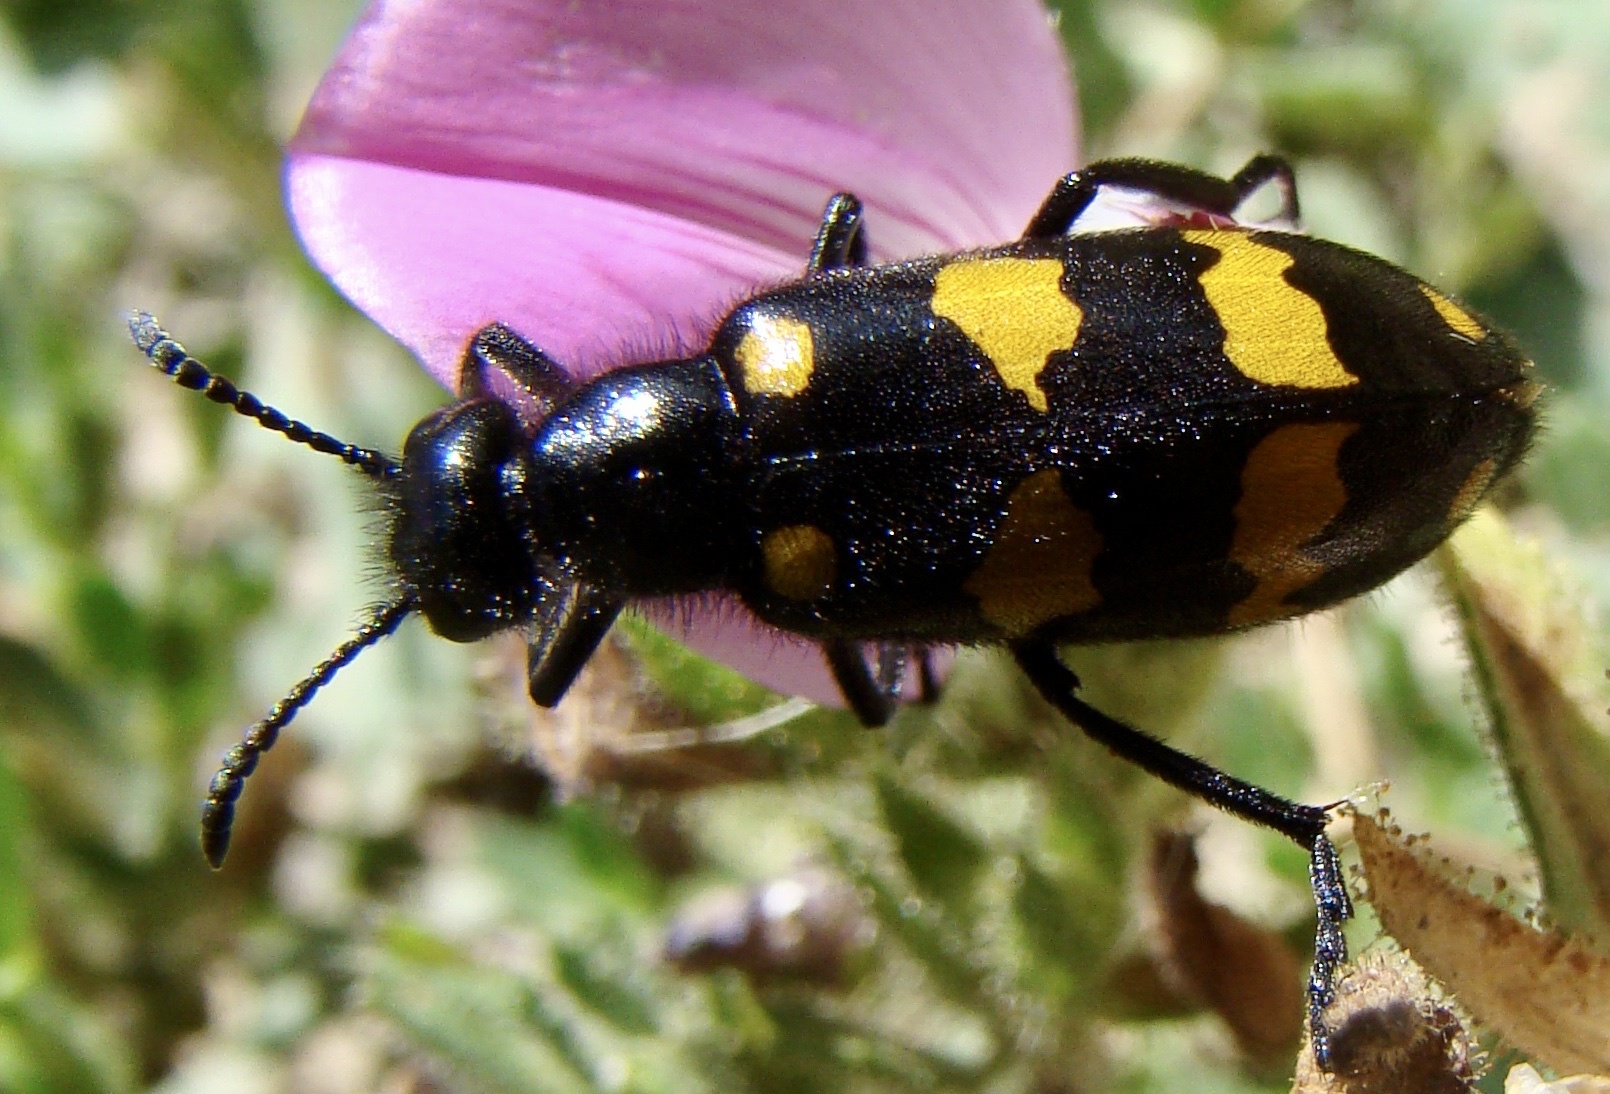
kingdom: Animalia
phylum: Arthropoda
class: Insecta
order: Coleoptera
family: Meloidae
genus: Hycleus
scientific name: Hycleus polymorphus
